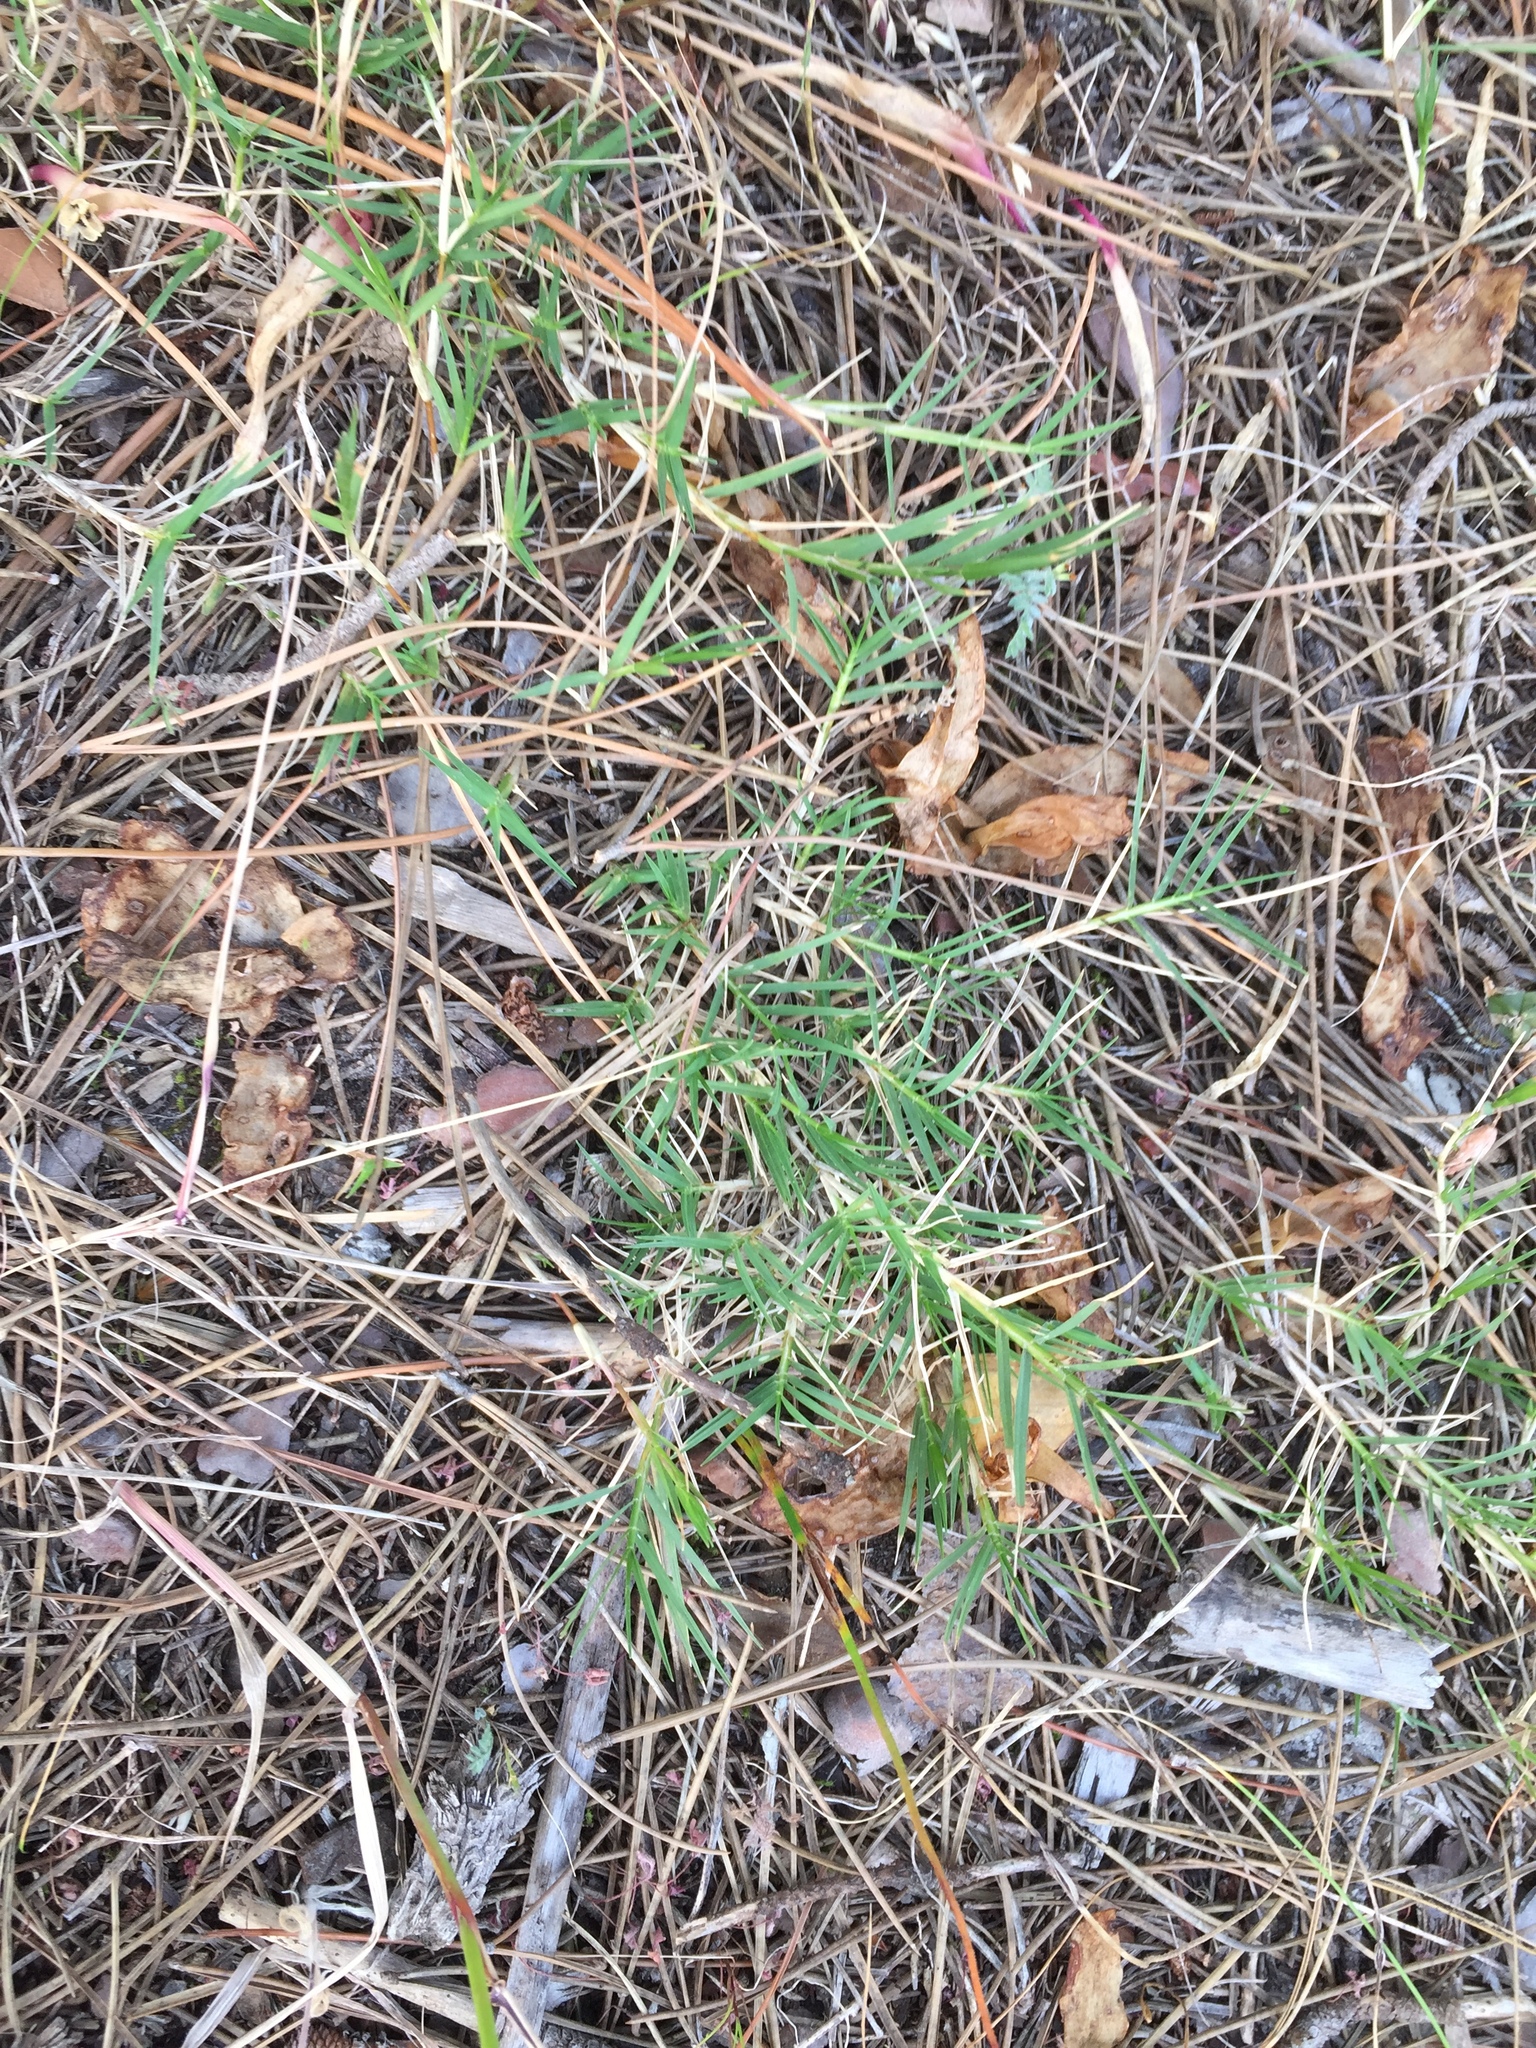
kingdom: Plantae
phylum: Tracheophyta
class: Liliopsida
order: Poales
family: Poaceae
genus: Cynodon
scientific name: Cynodon dactylon
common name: Bermuda grass
